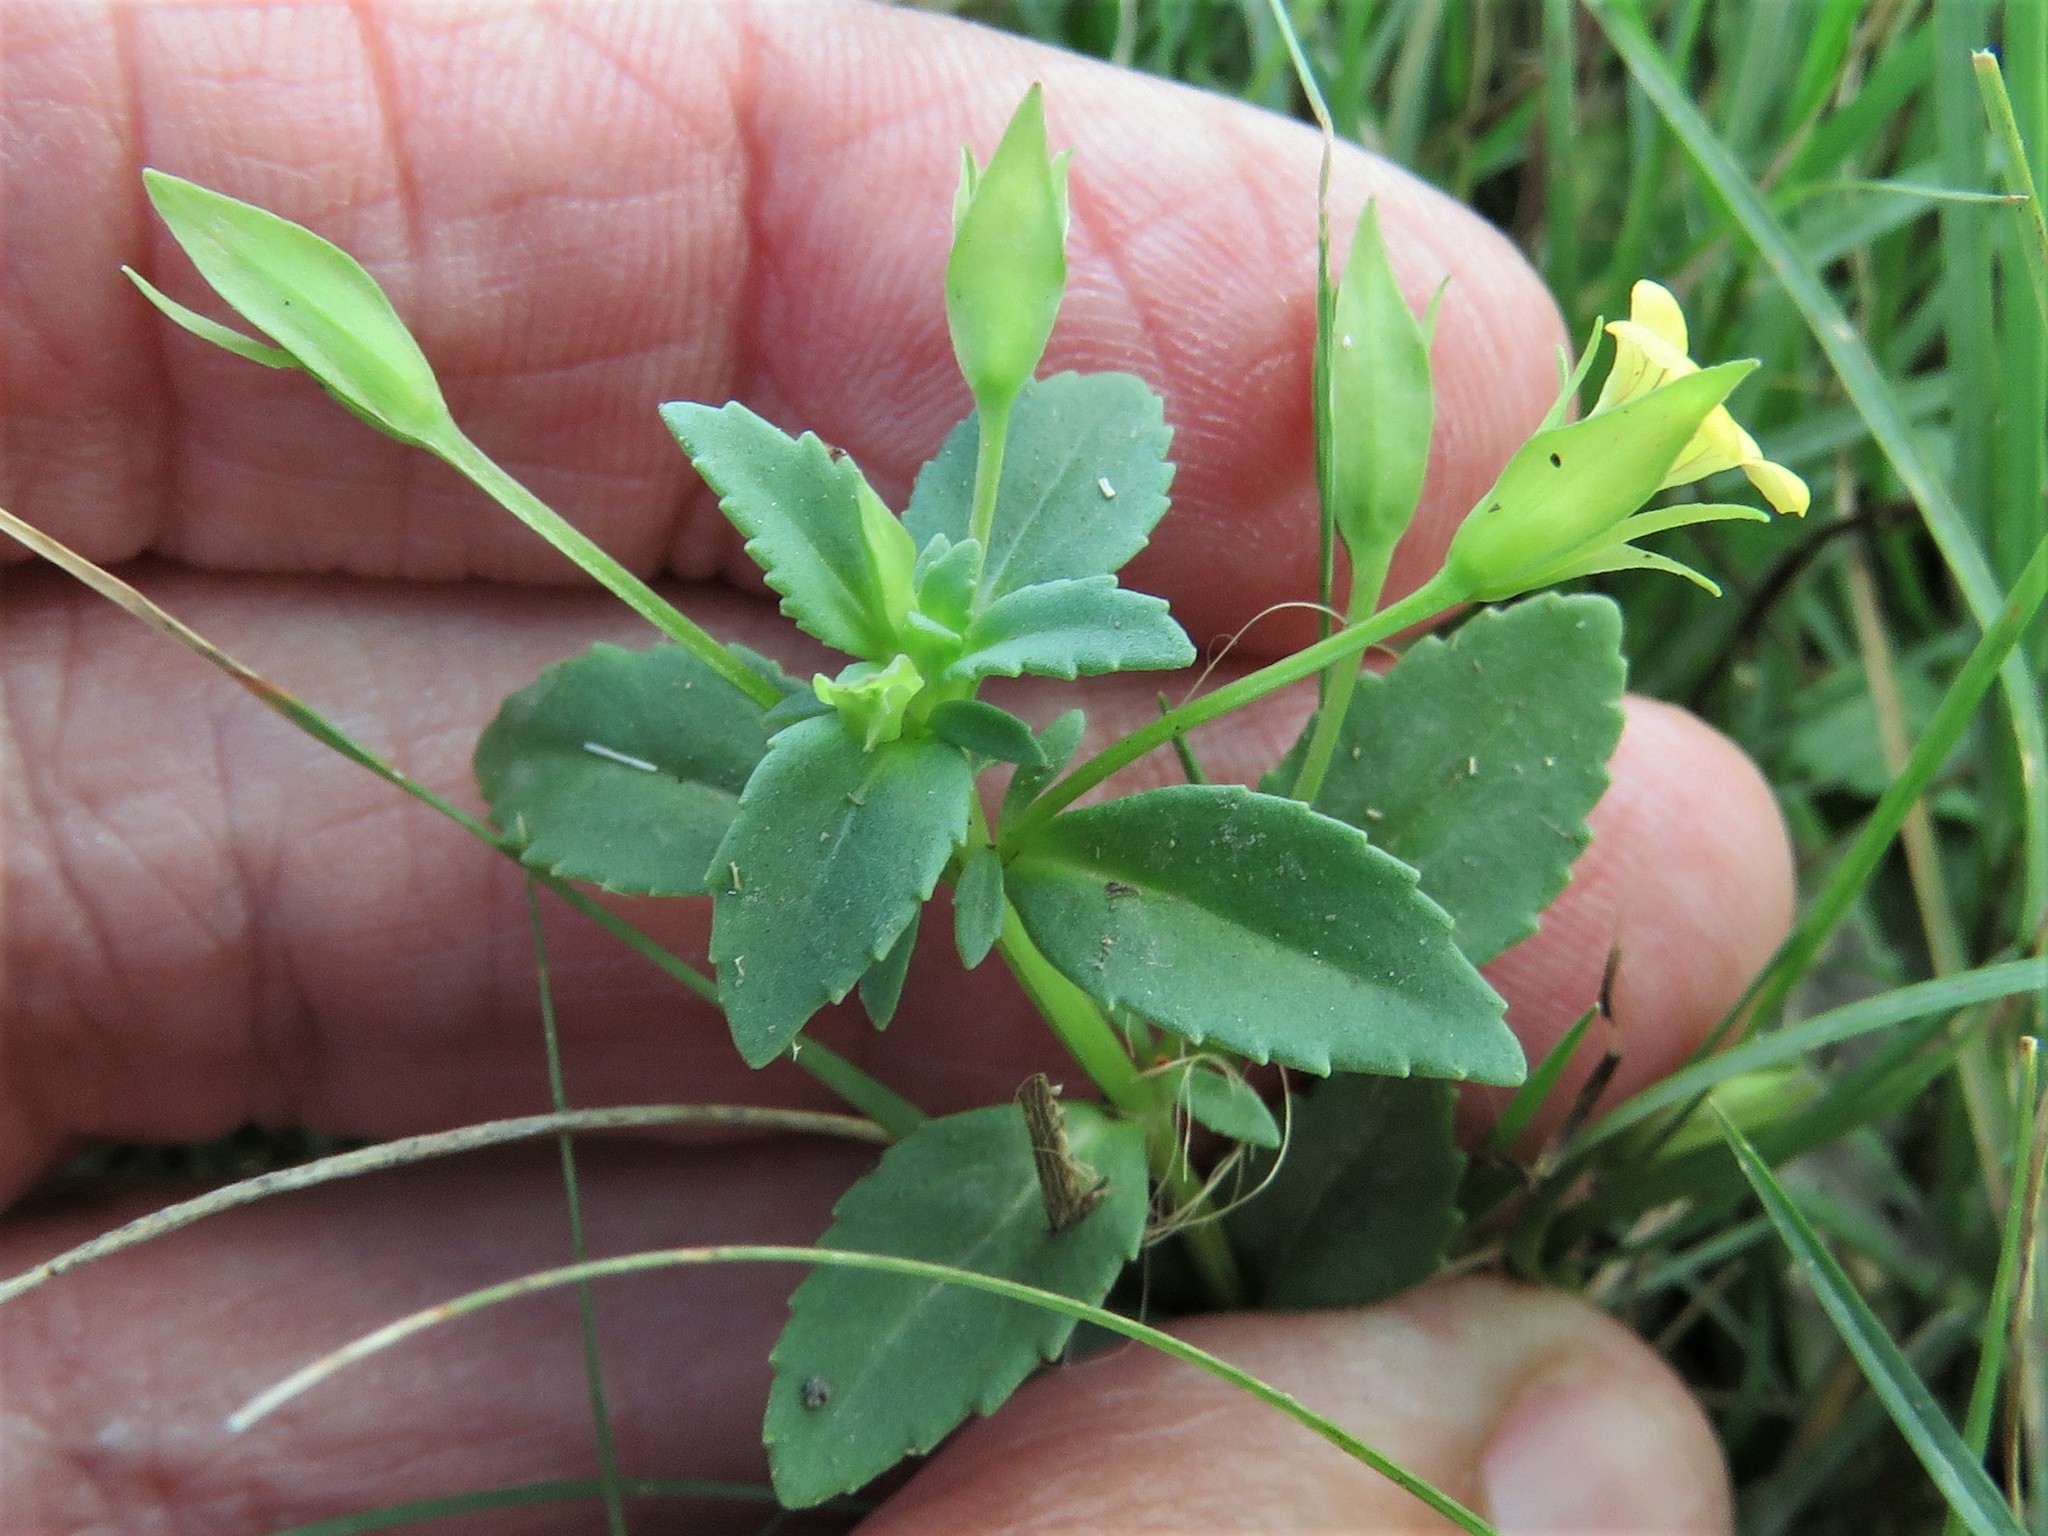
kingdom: Plantae
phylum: Tracheophyta
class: Magnoliopsida
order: Lamiales
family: Plantaginaceae
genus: Mecardonia
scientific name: Mecardonia procumbens
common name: Baby jump-up
